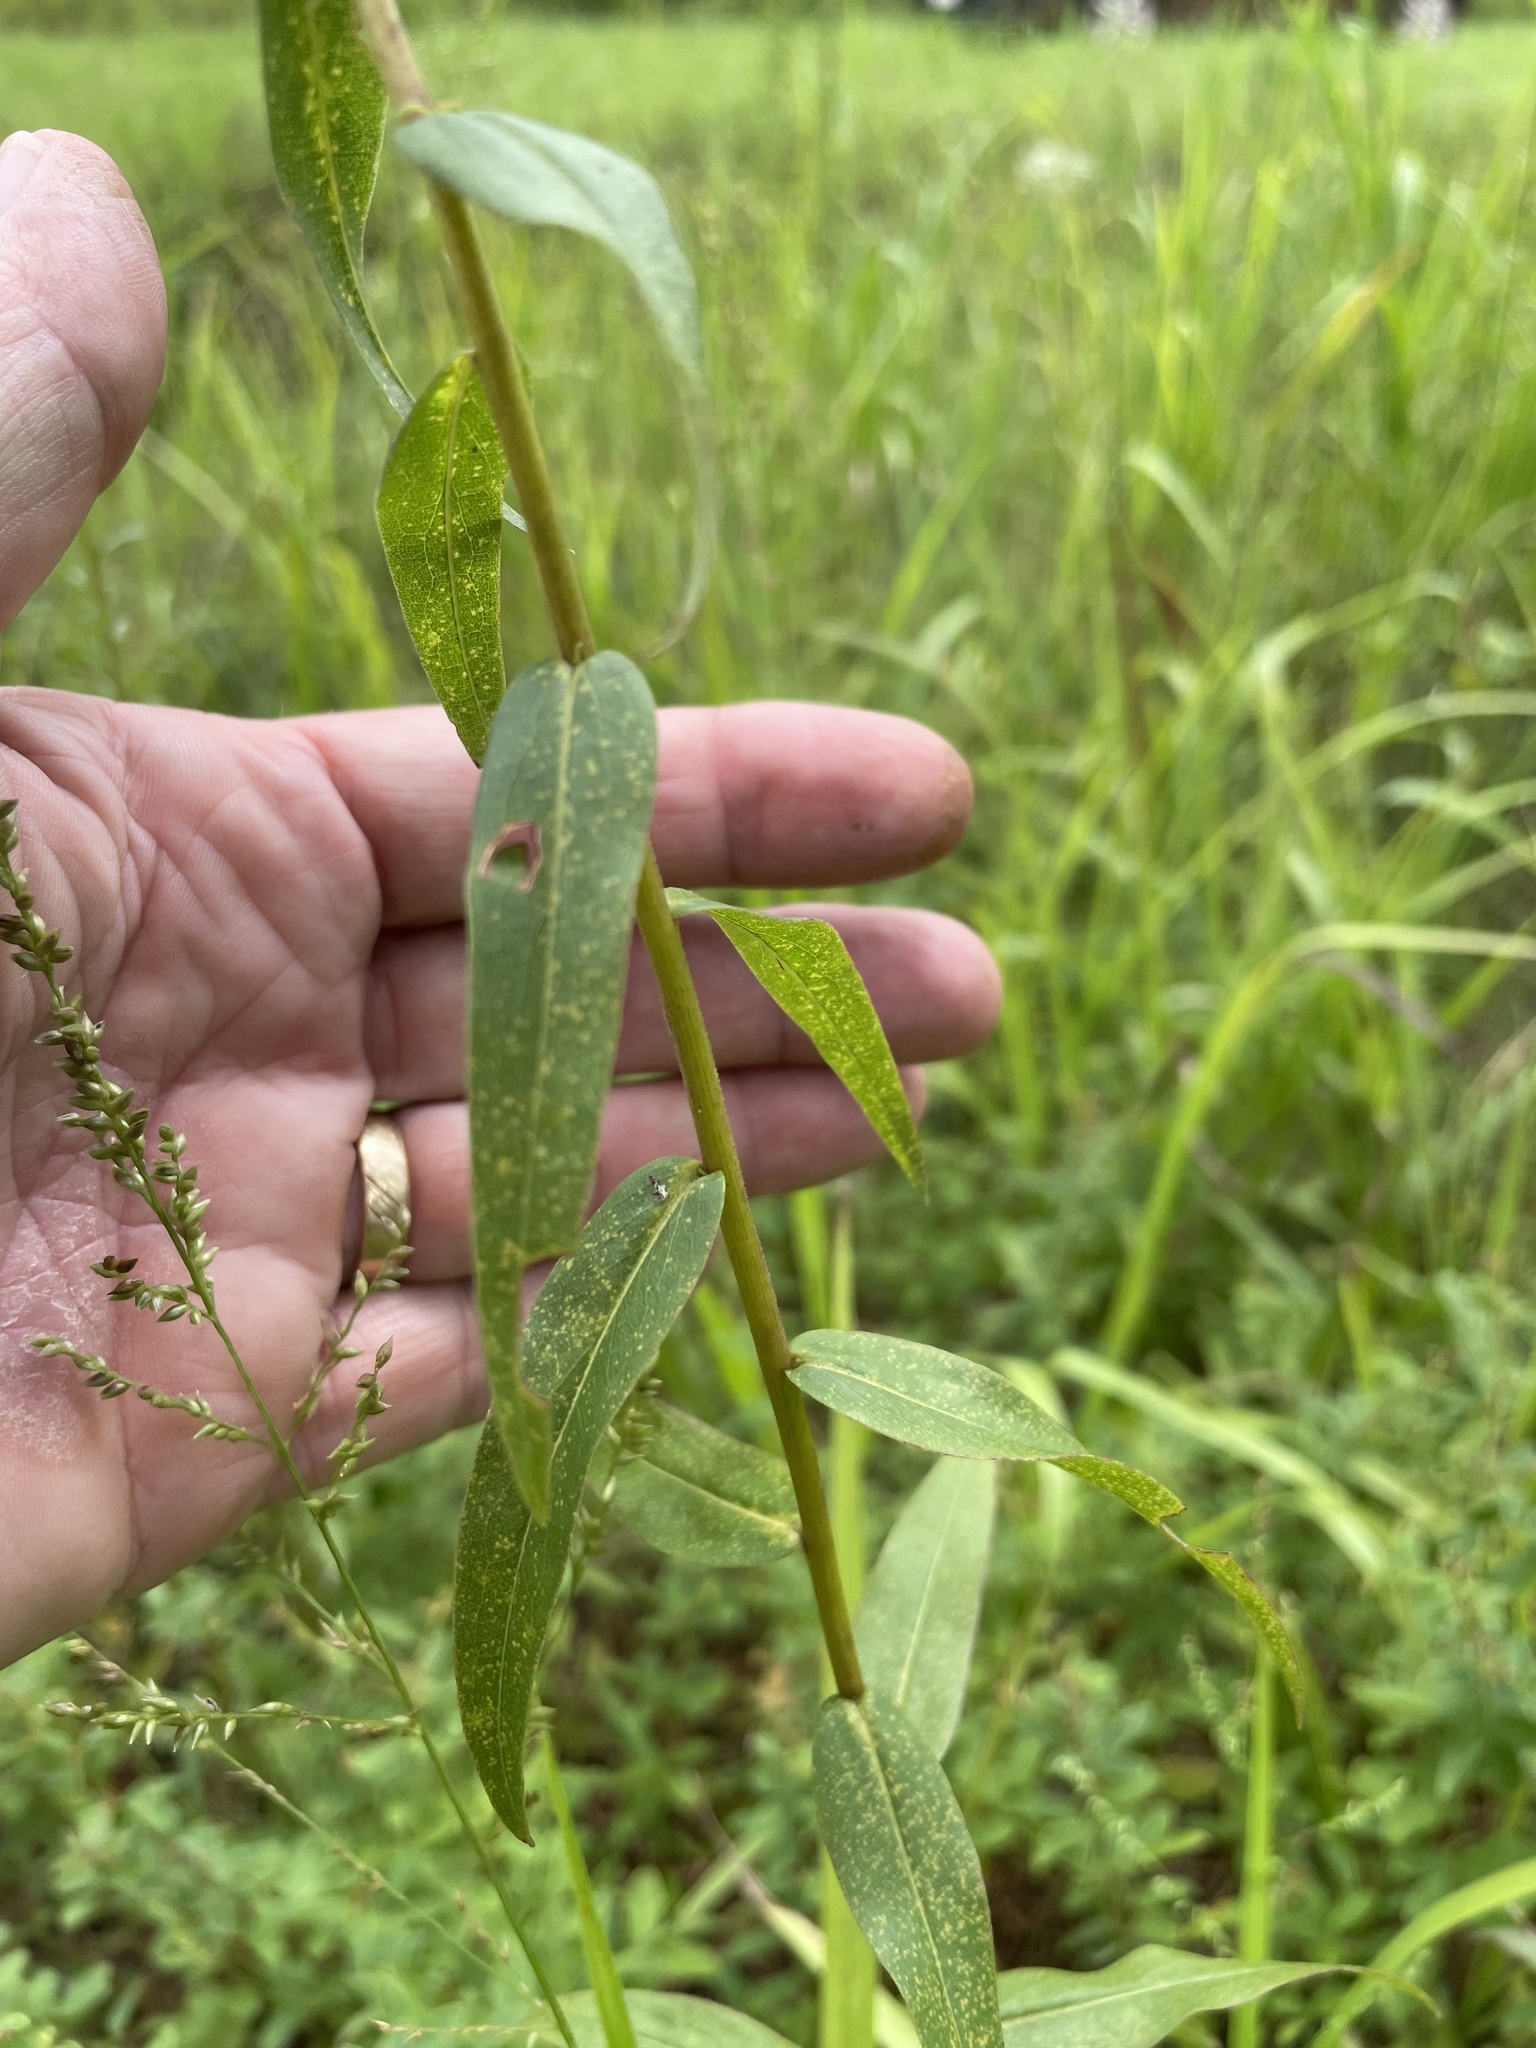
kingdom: Plantae
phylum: Tracheophyta
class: Magnoliopsida
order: Asterales
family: Asteraceae
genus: Solidago
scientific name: Solidago odora
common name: Anise-scented goldenrod
